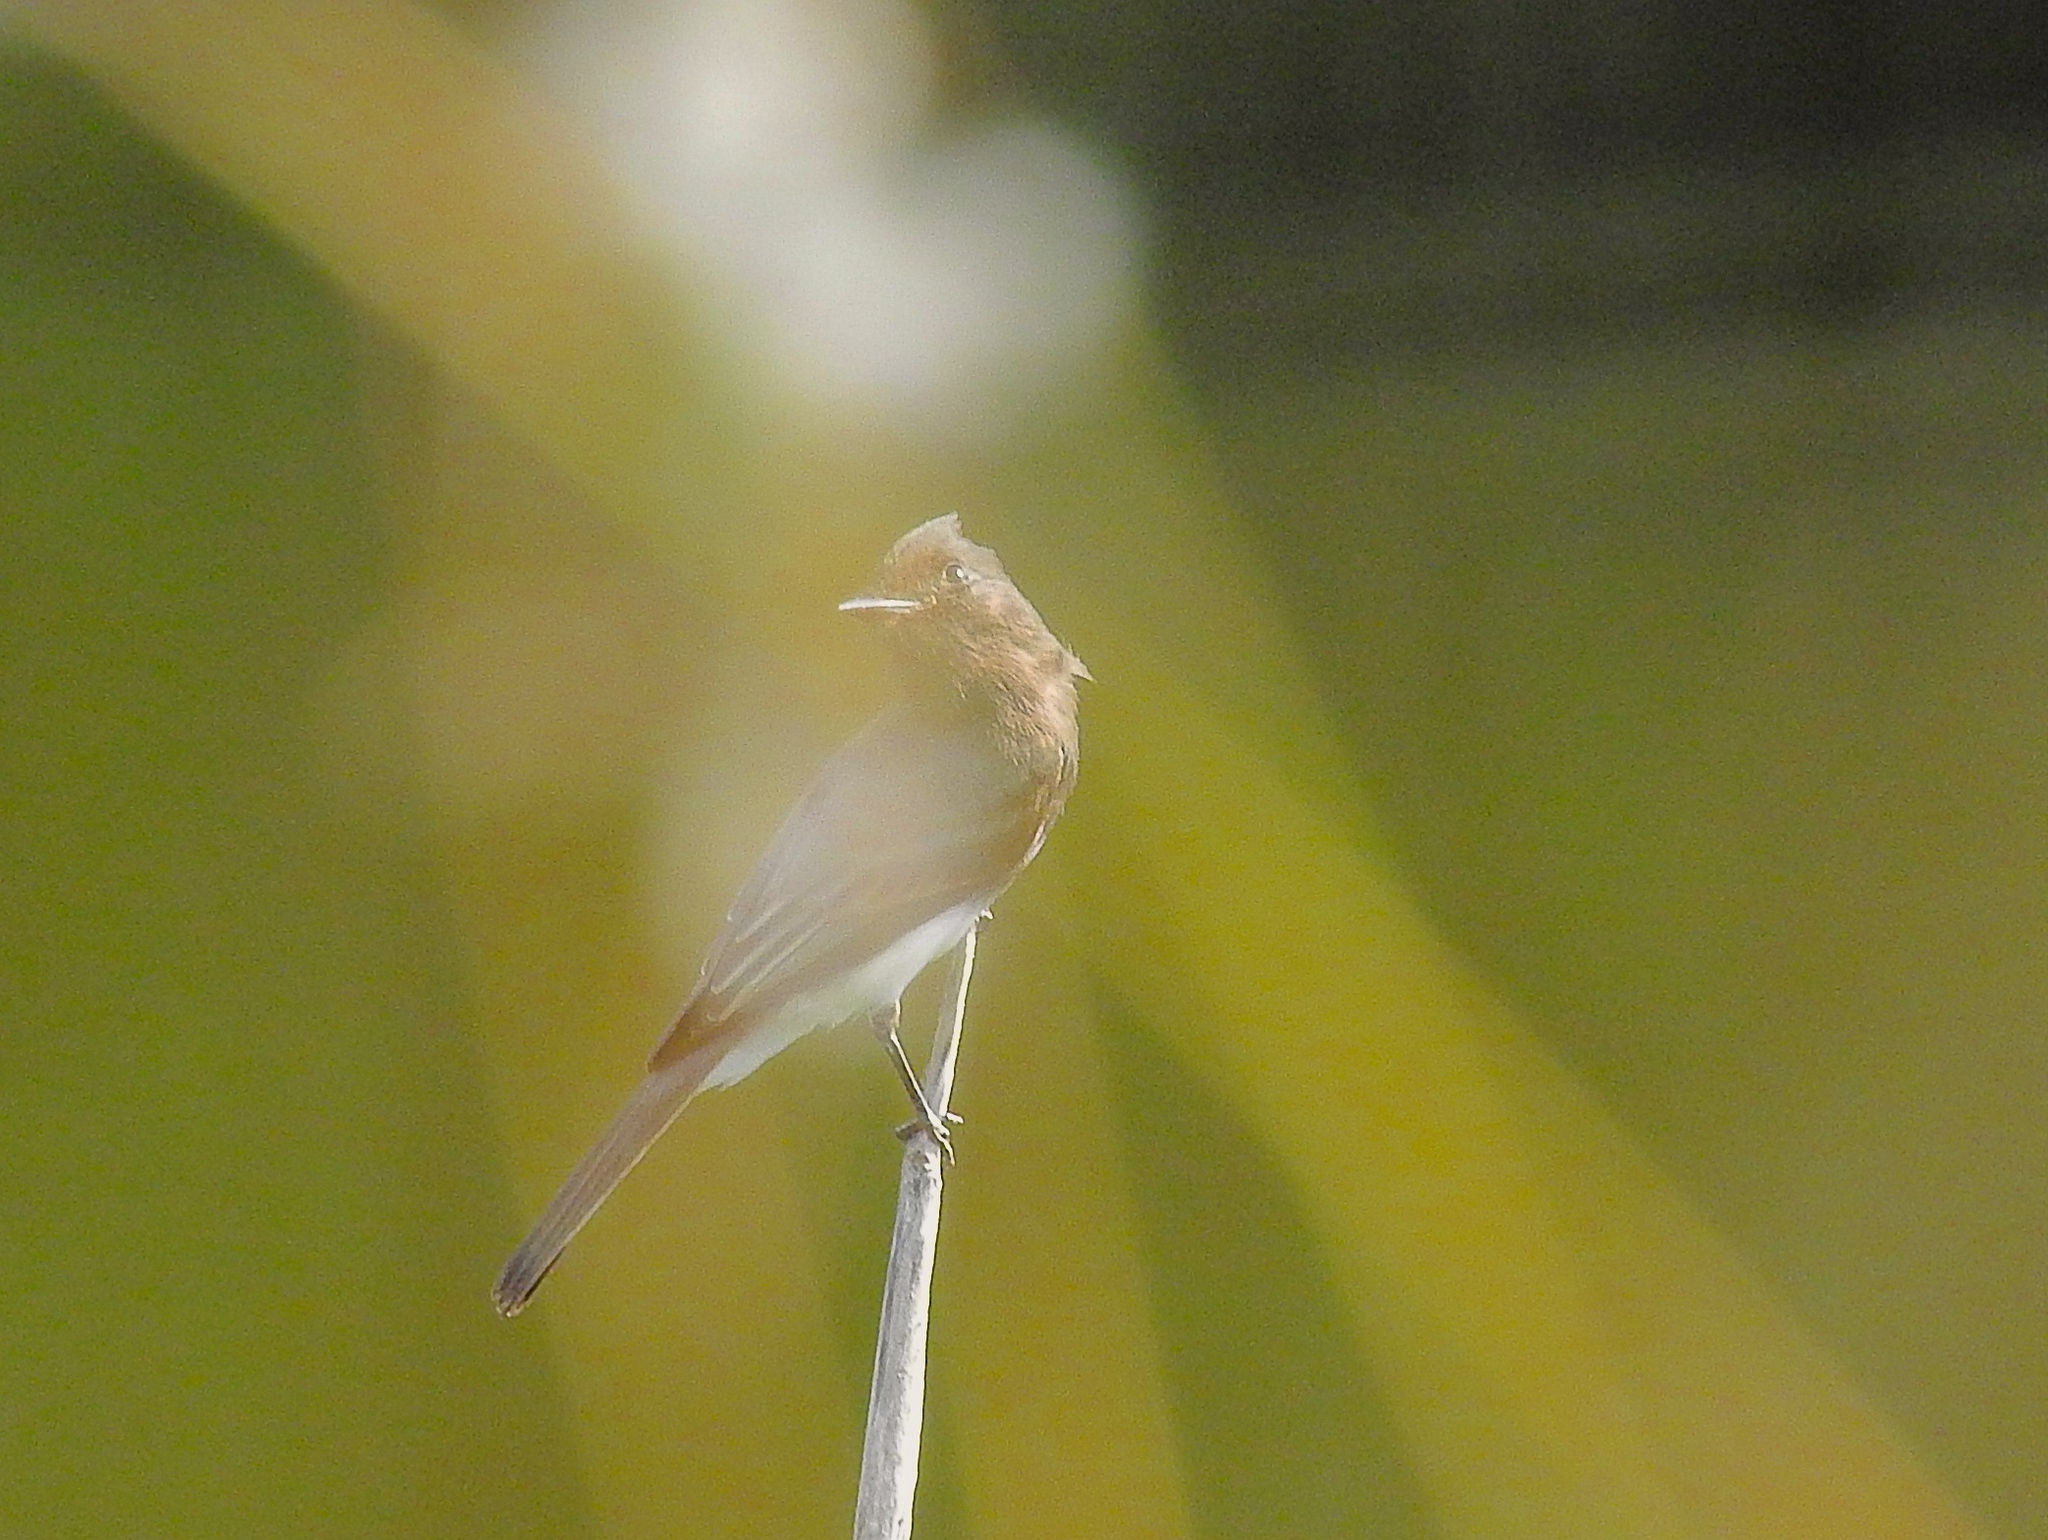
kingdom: Animalia
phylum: Chordata
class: Aves
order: Passeriformes
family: Tyrannidae
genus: Sayornis
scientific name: Sayornis nigricans
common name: Black phoebe
